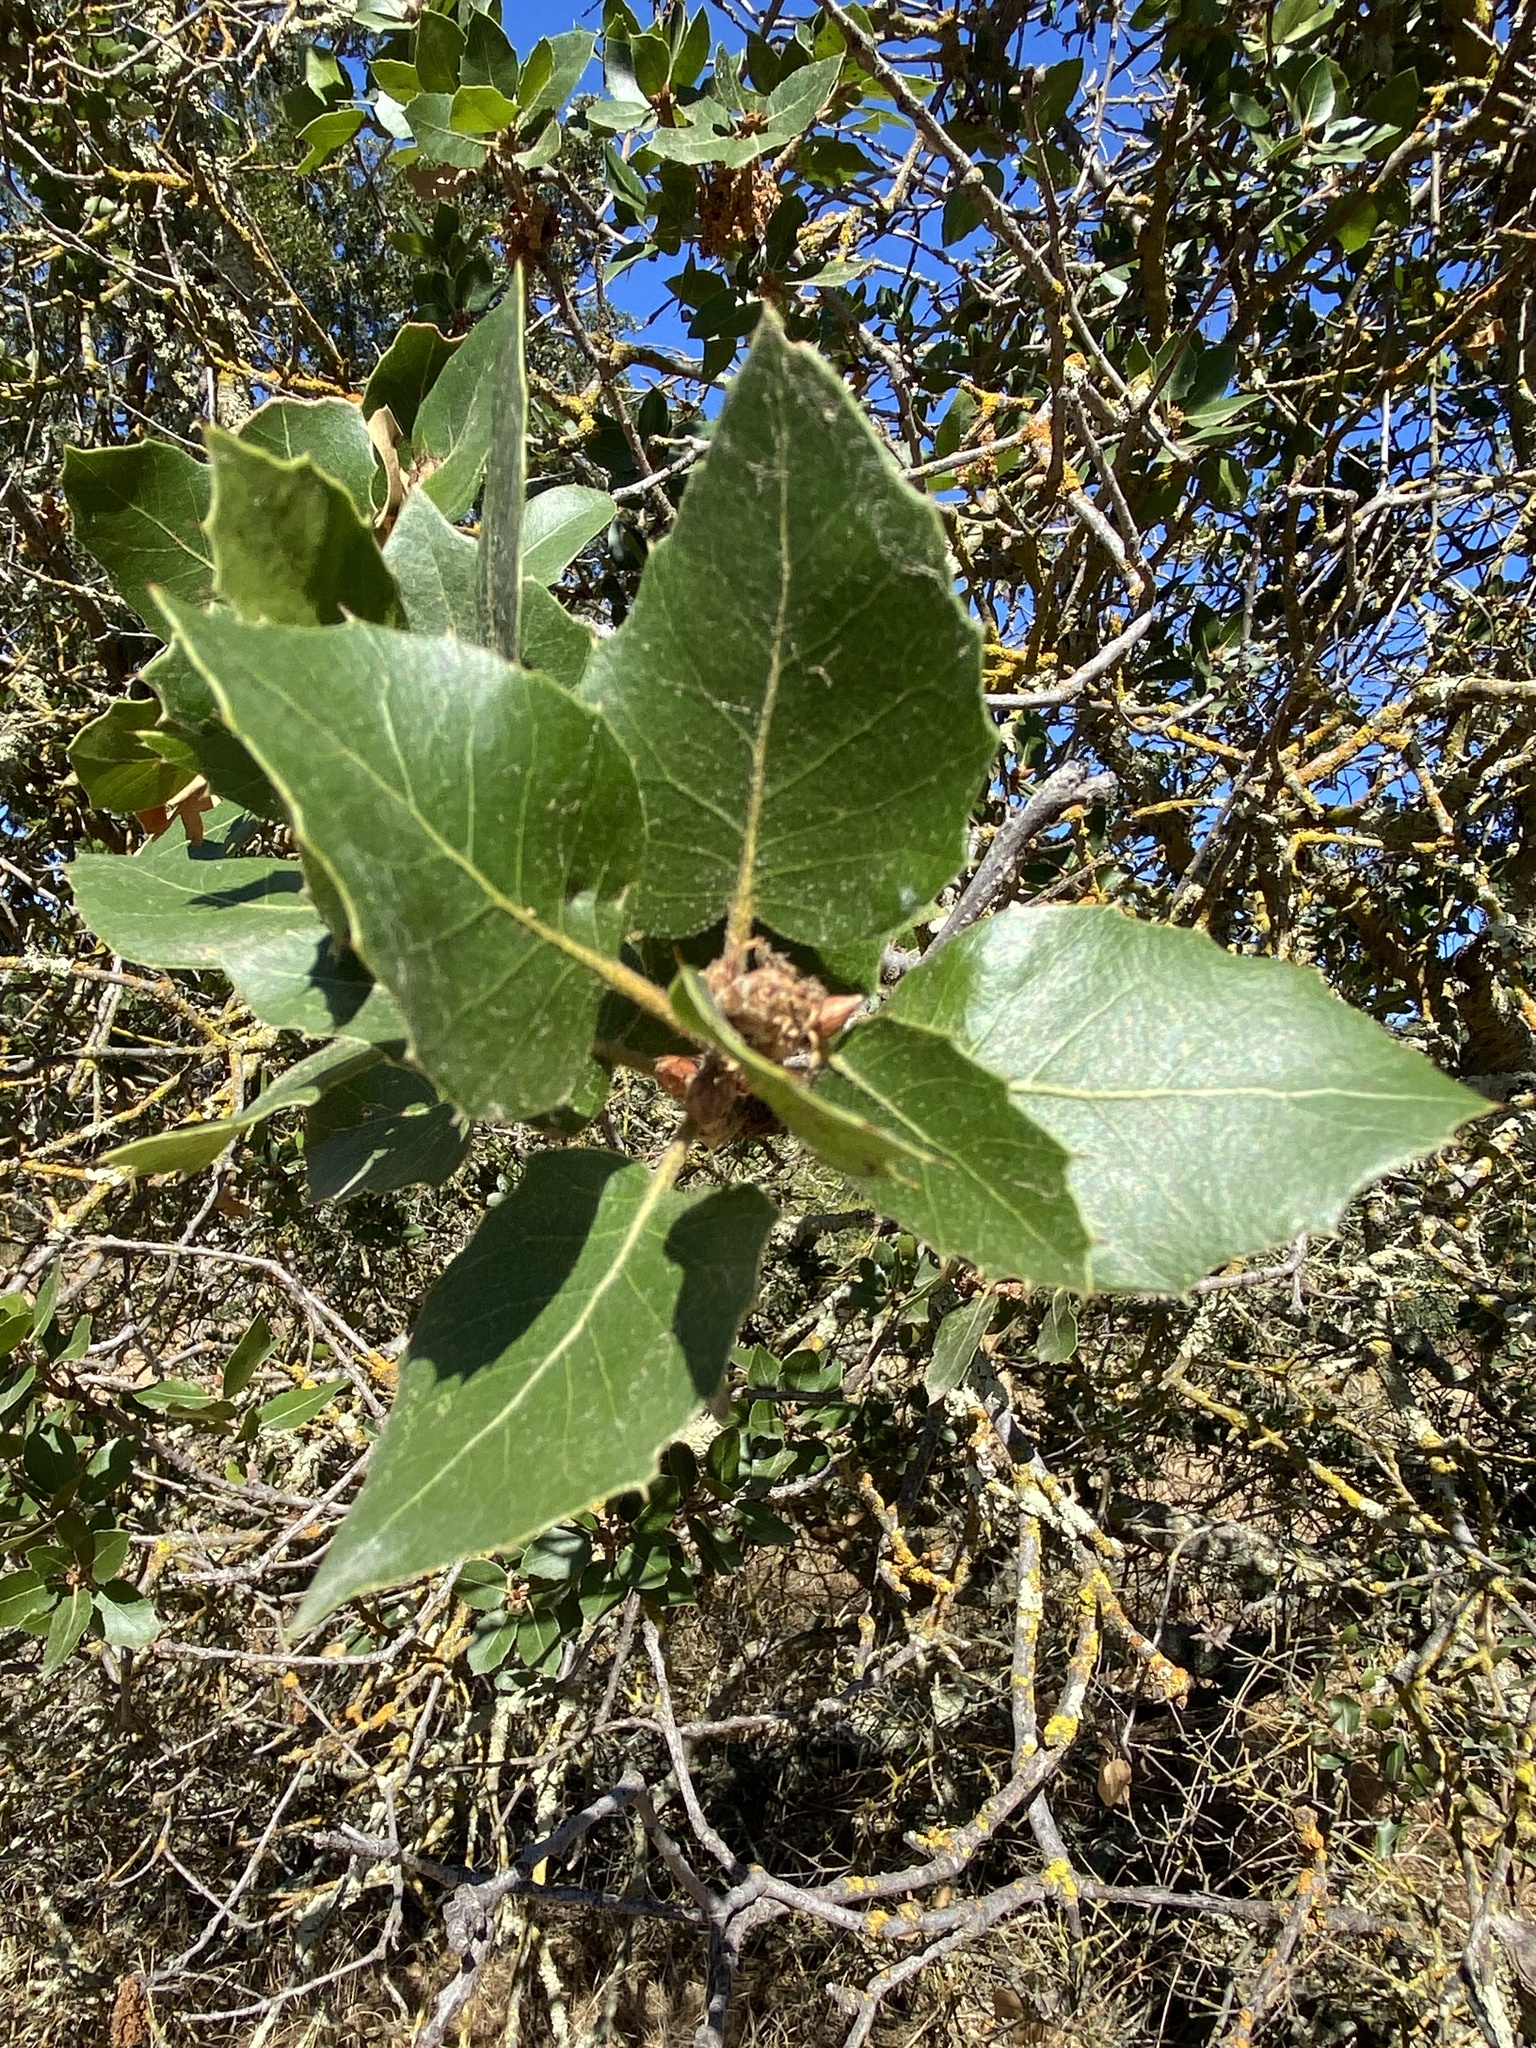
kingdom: Plantae
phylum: Tracheophyta
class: Magnoliopsida
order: Fagales
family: Fagaceae
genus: Quercus
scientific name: Quercus wislizeni
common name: Interior live oak
